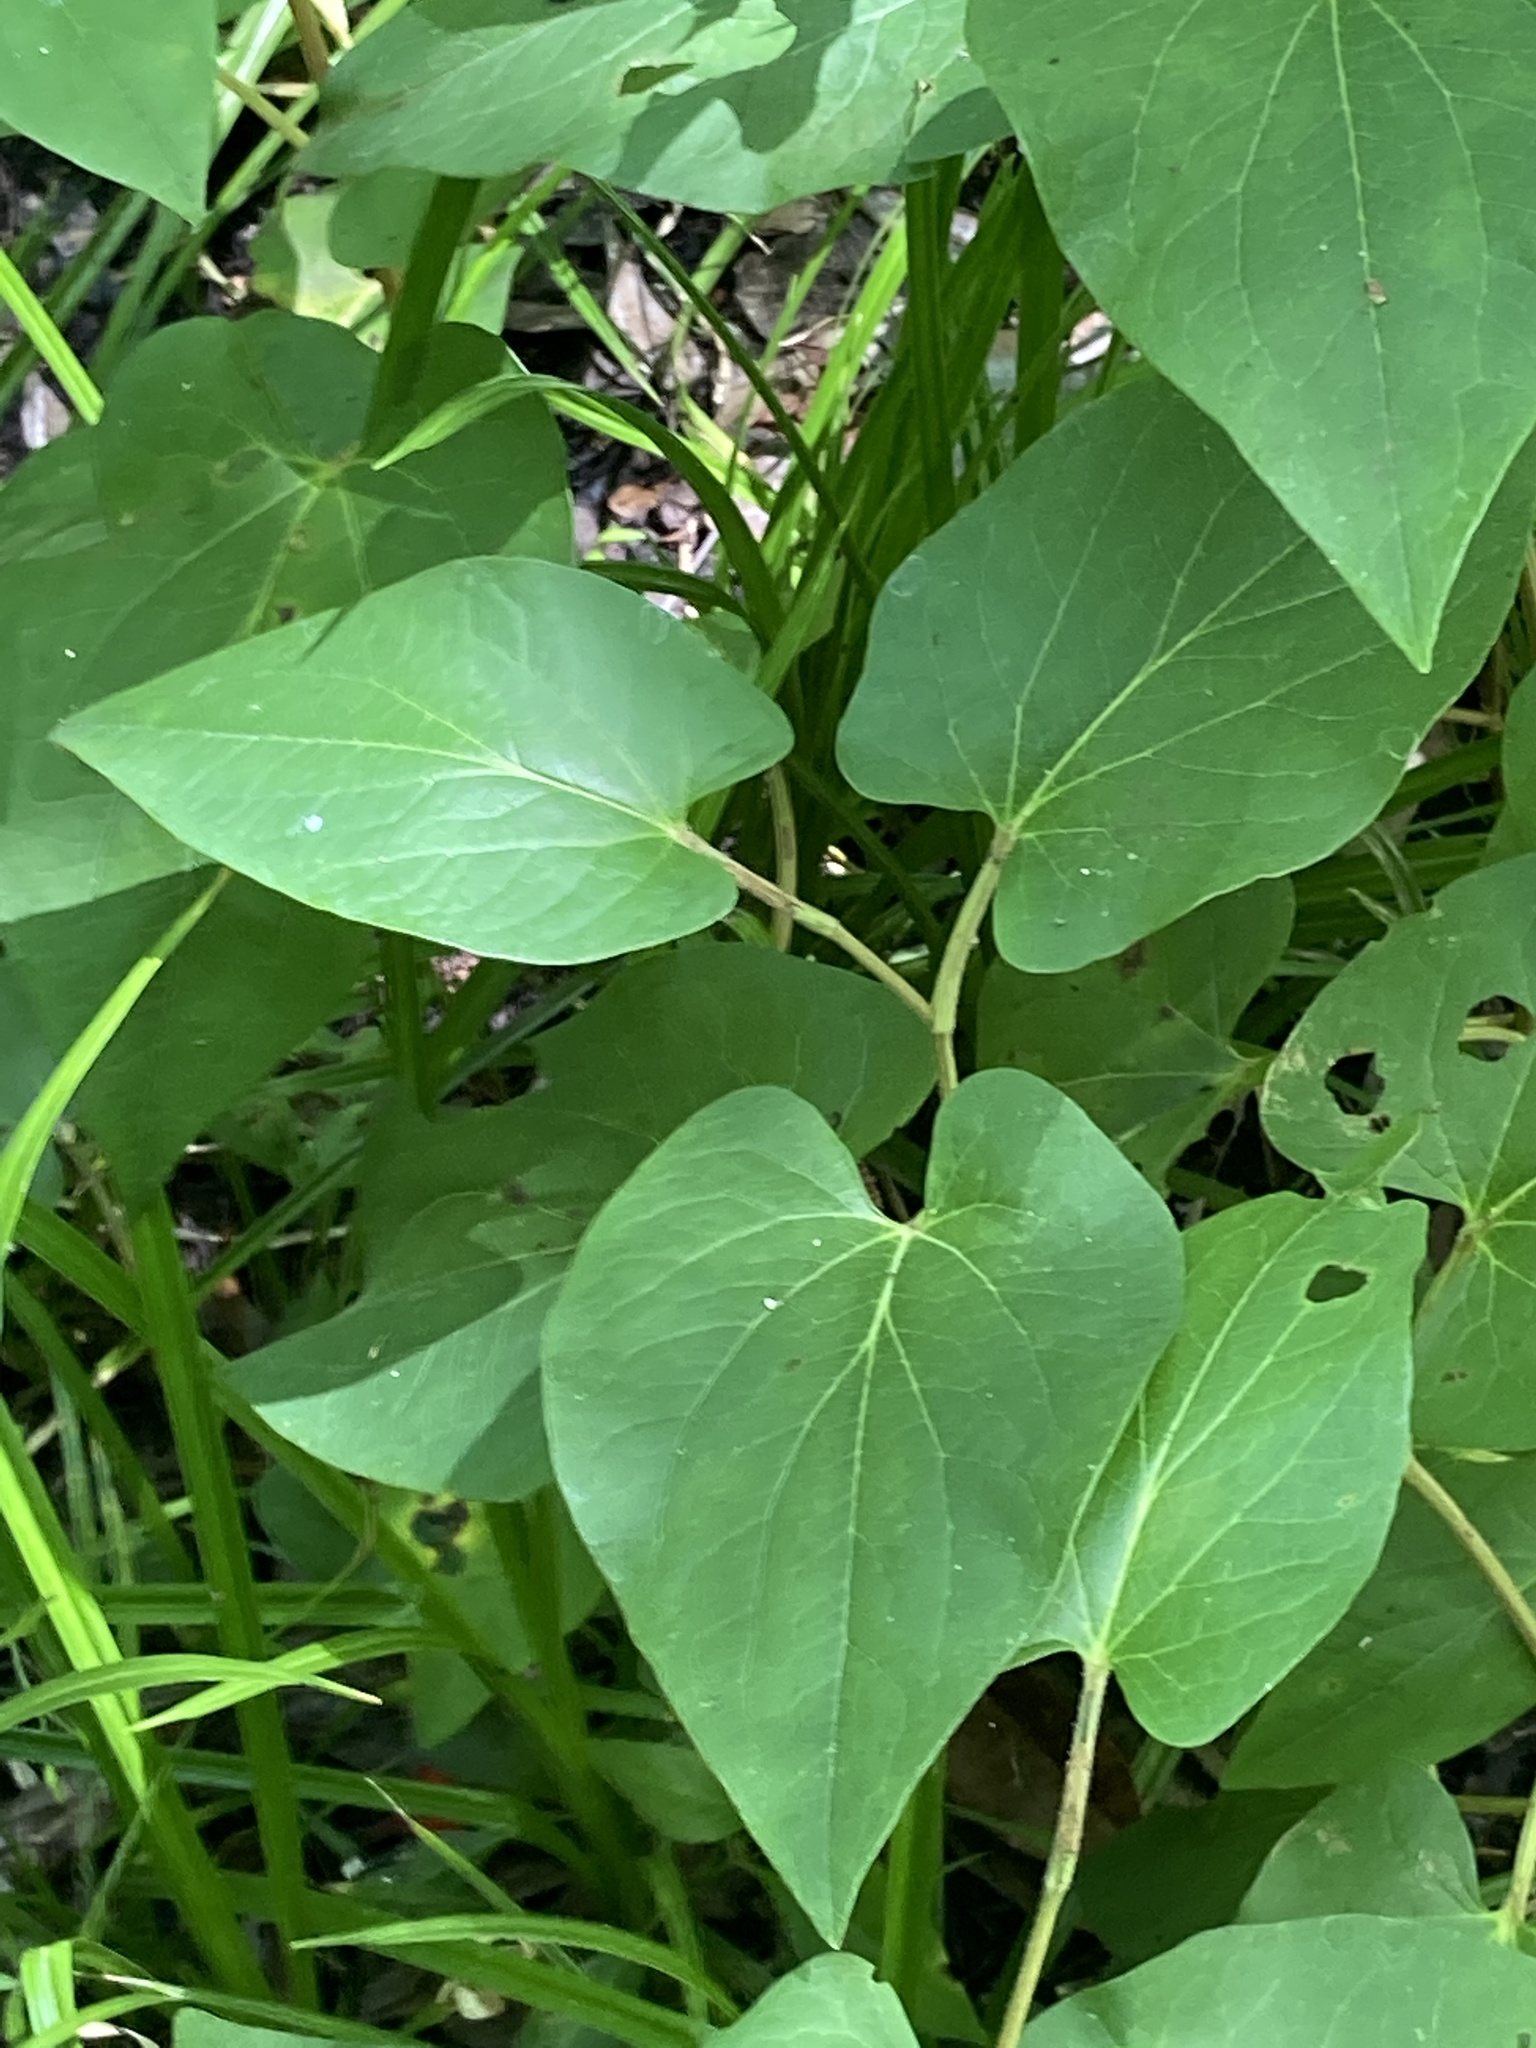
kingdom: Plantae
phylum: Tracheophyta
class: Magnoliopsida
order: Piperales
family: Saururaceae
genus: Saururus
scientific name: Saururus cernuus
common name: Lizard's-tail
